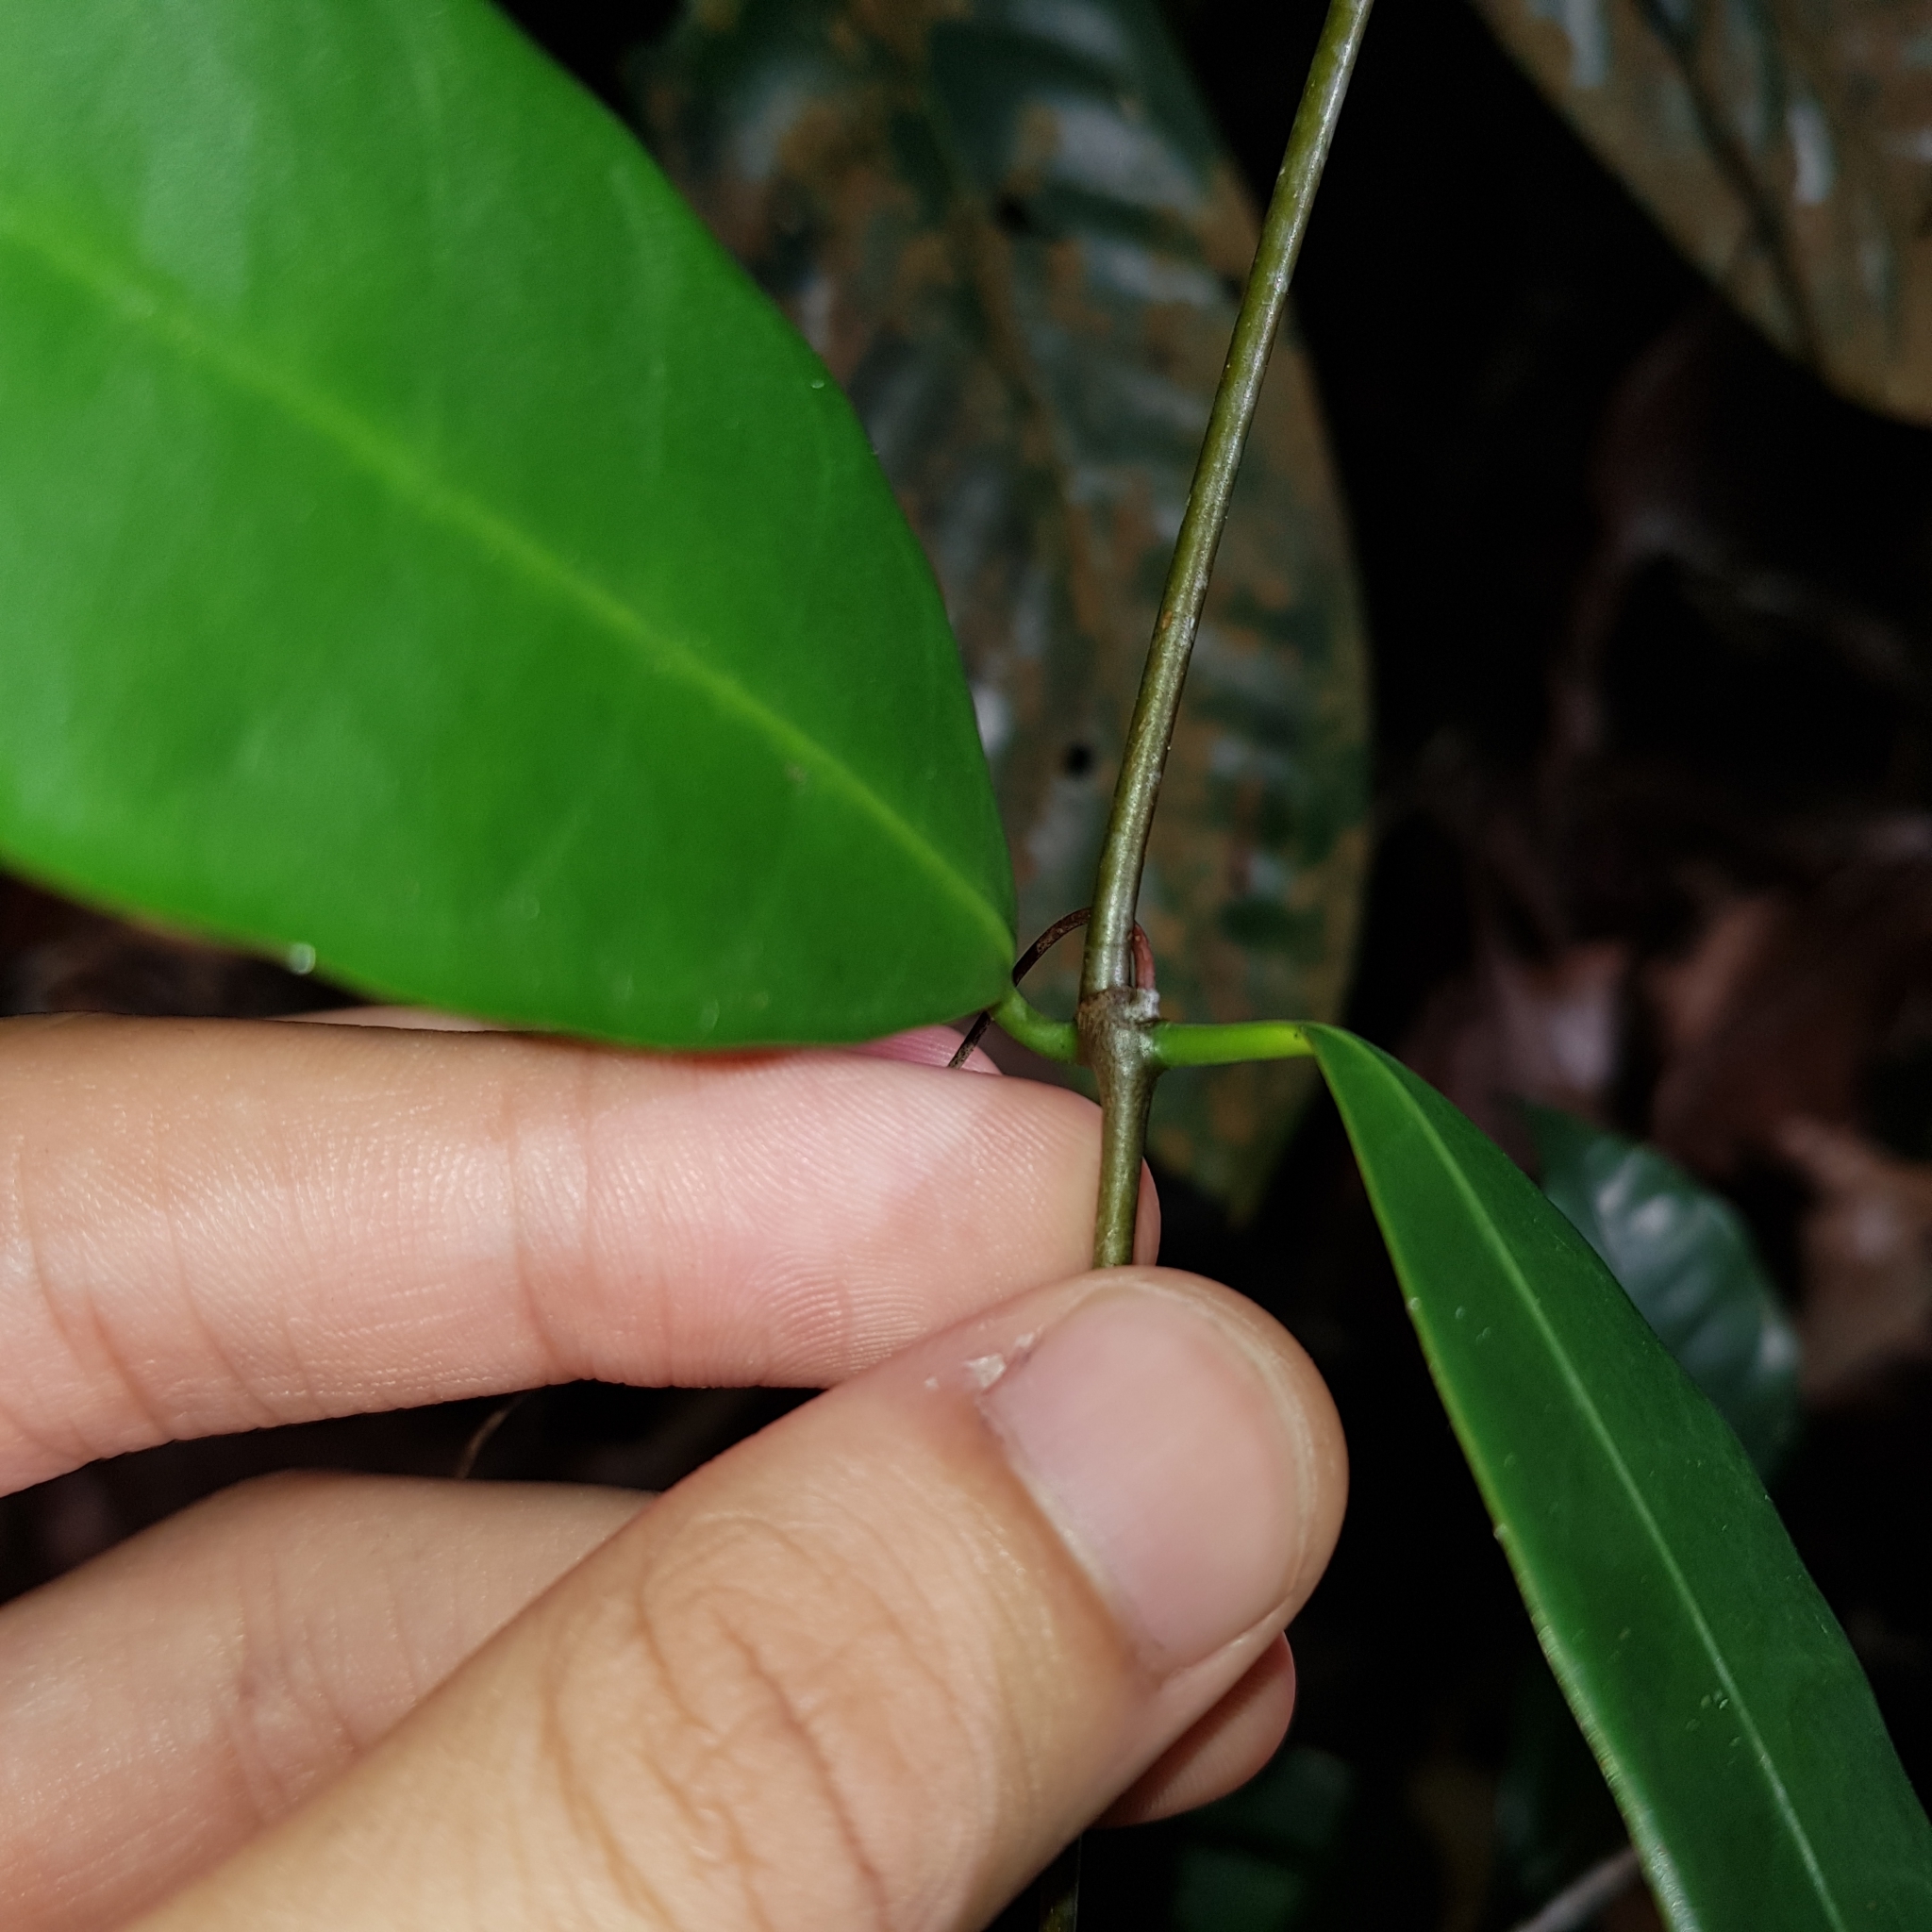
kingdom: Plantae
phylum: Tracheophyta
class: Magnoliopsida
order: Gentianales
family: Apocynaceae
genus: Willughbeia
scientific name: Willughbeia coriacea
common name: Borneo-rubber
